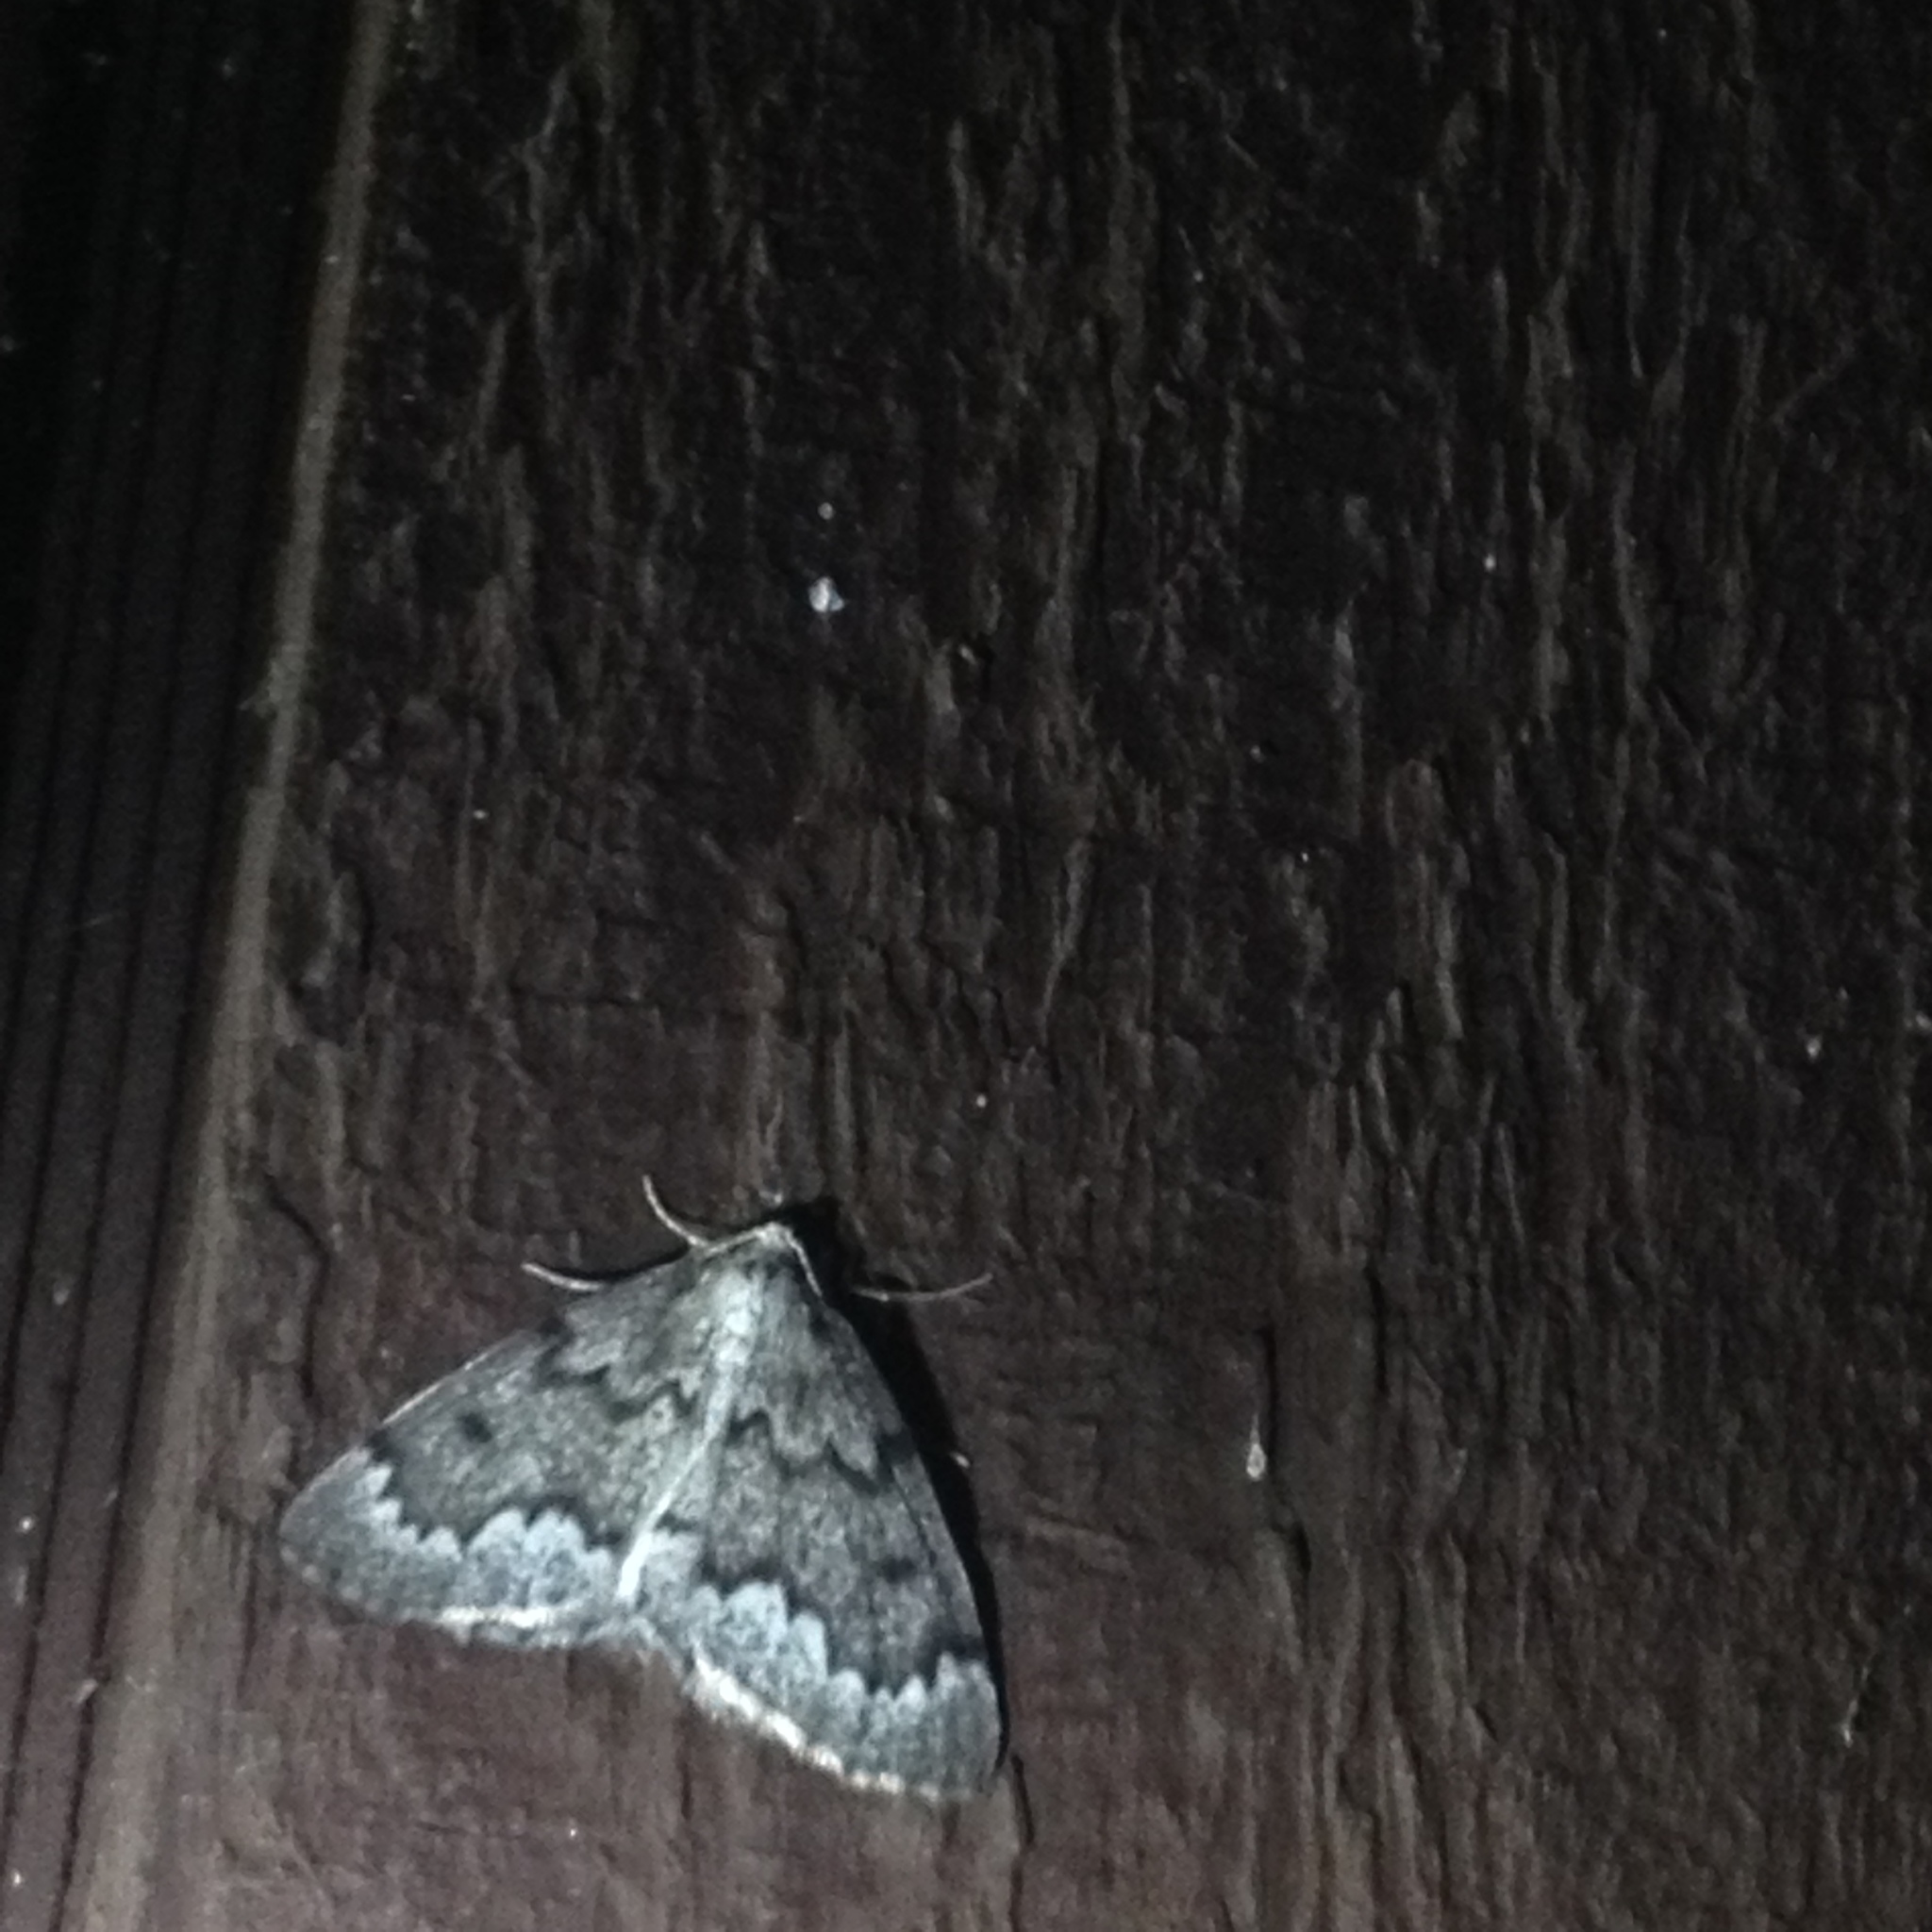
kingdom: Animalia
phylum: Arthropoda
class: Insecta
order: Lepidoptera
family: Geometridae
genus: Nepytia
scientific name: Nepytia canosaria
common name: False hemlock looper
